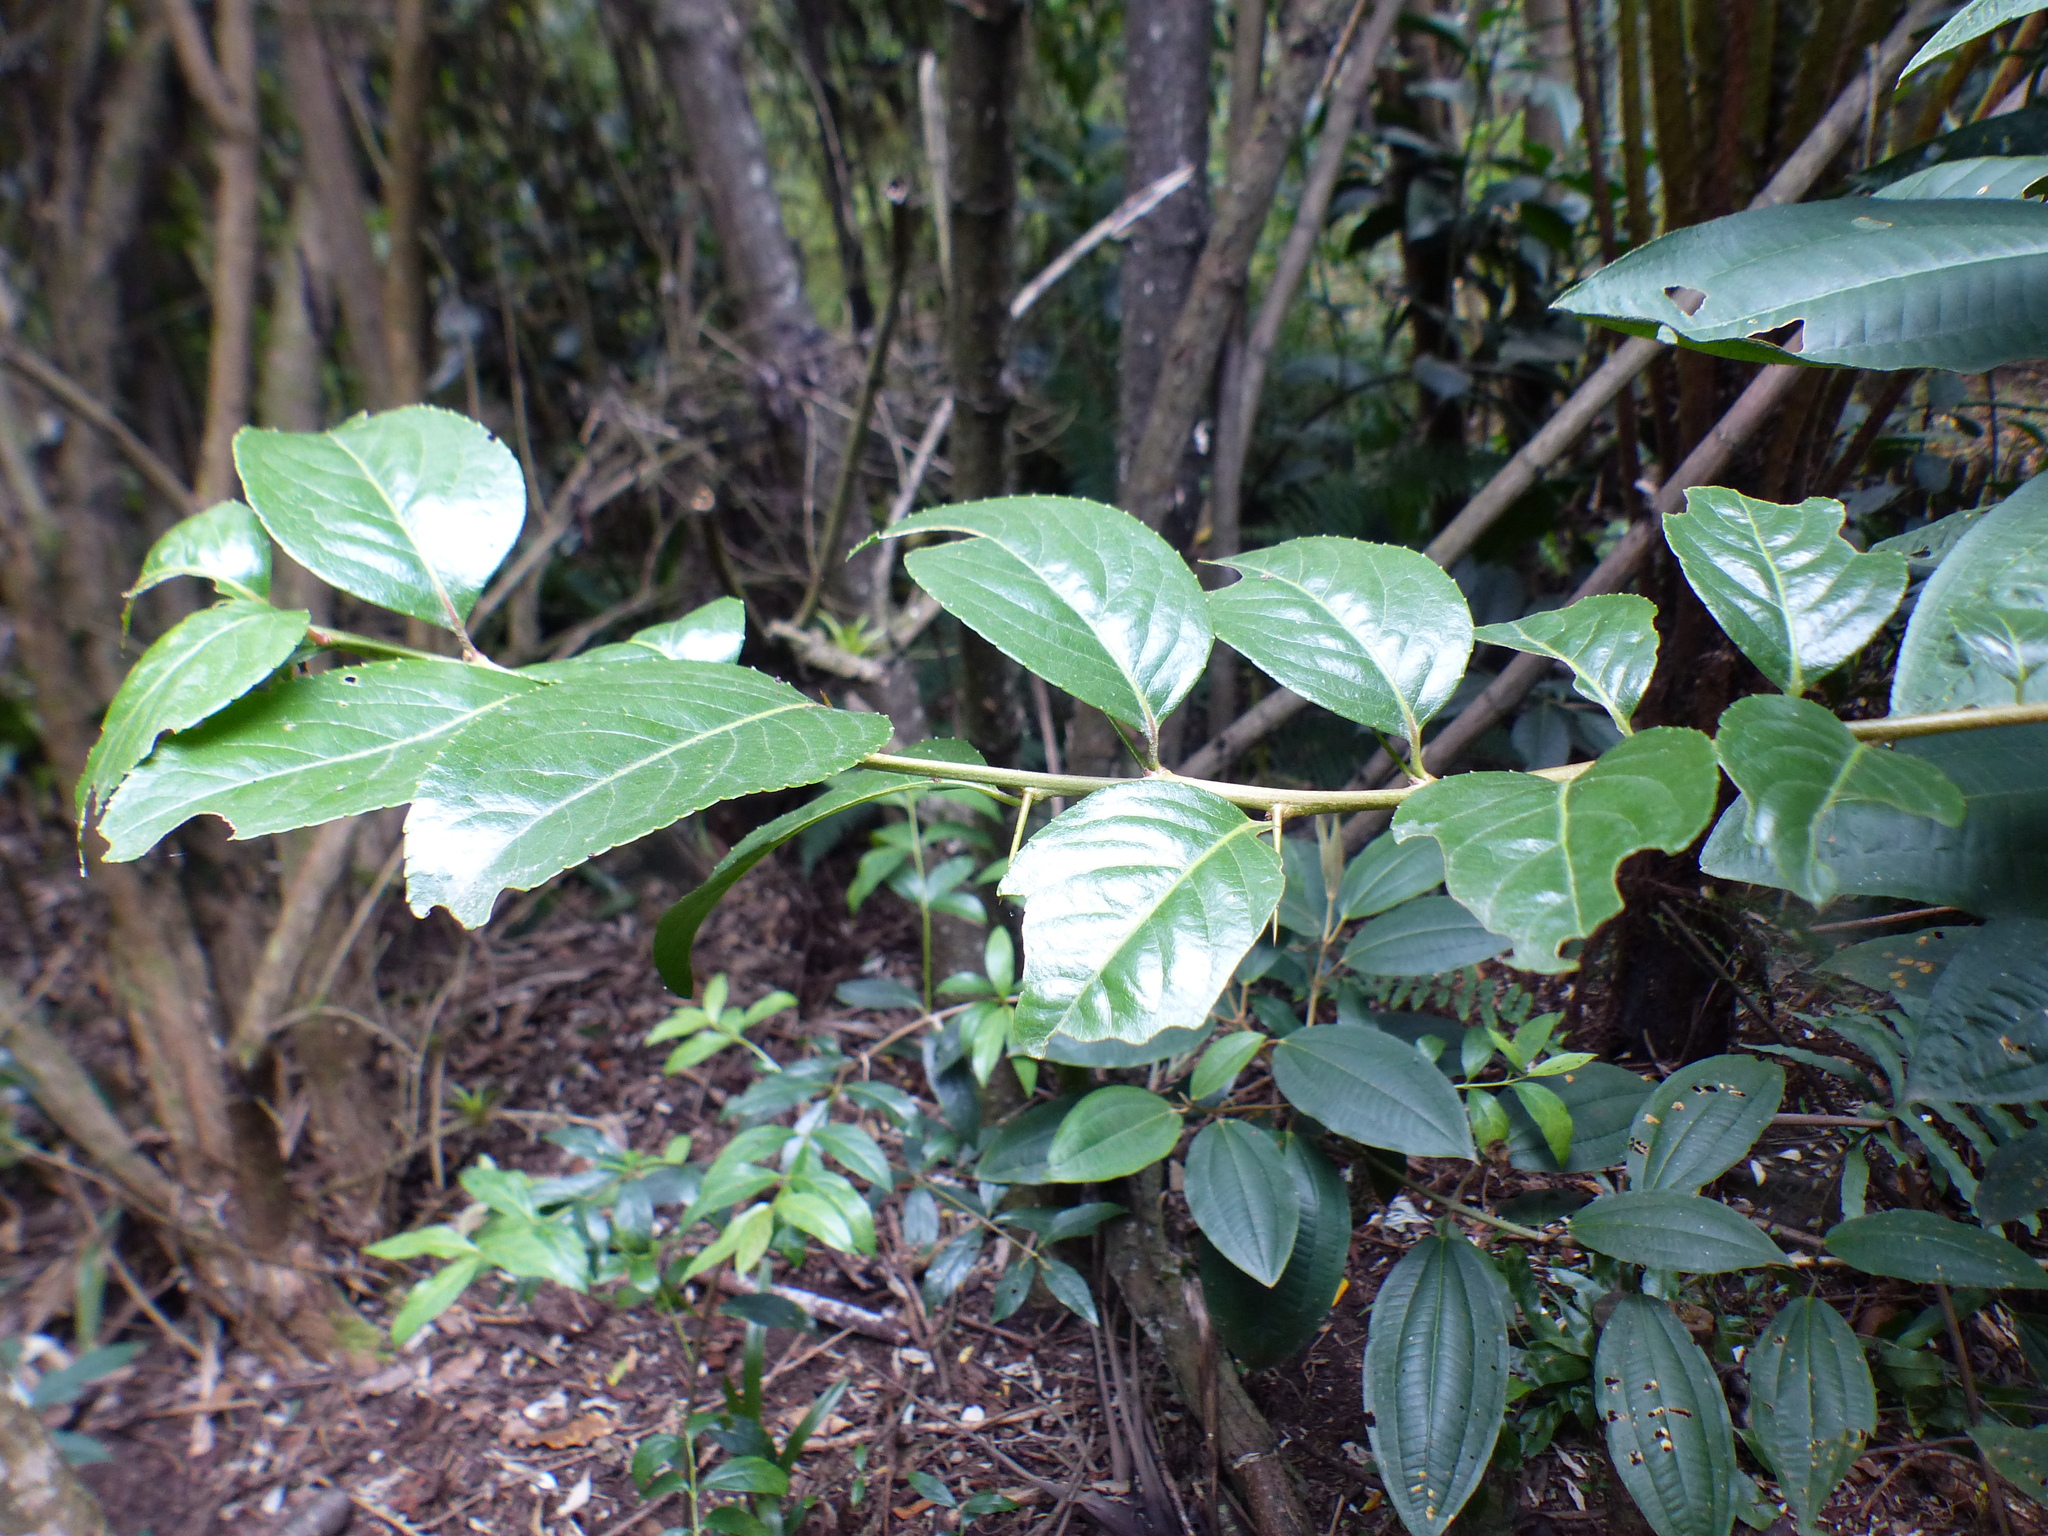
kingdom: Plantae
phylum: Tracheophyta
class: Magnoliopsida
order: Malpighiales
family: Salicaceae
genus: Xylosma
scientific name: Xylosma spiculifera
